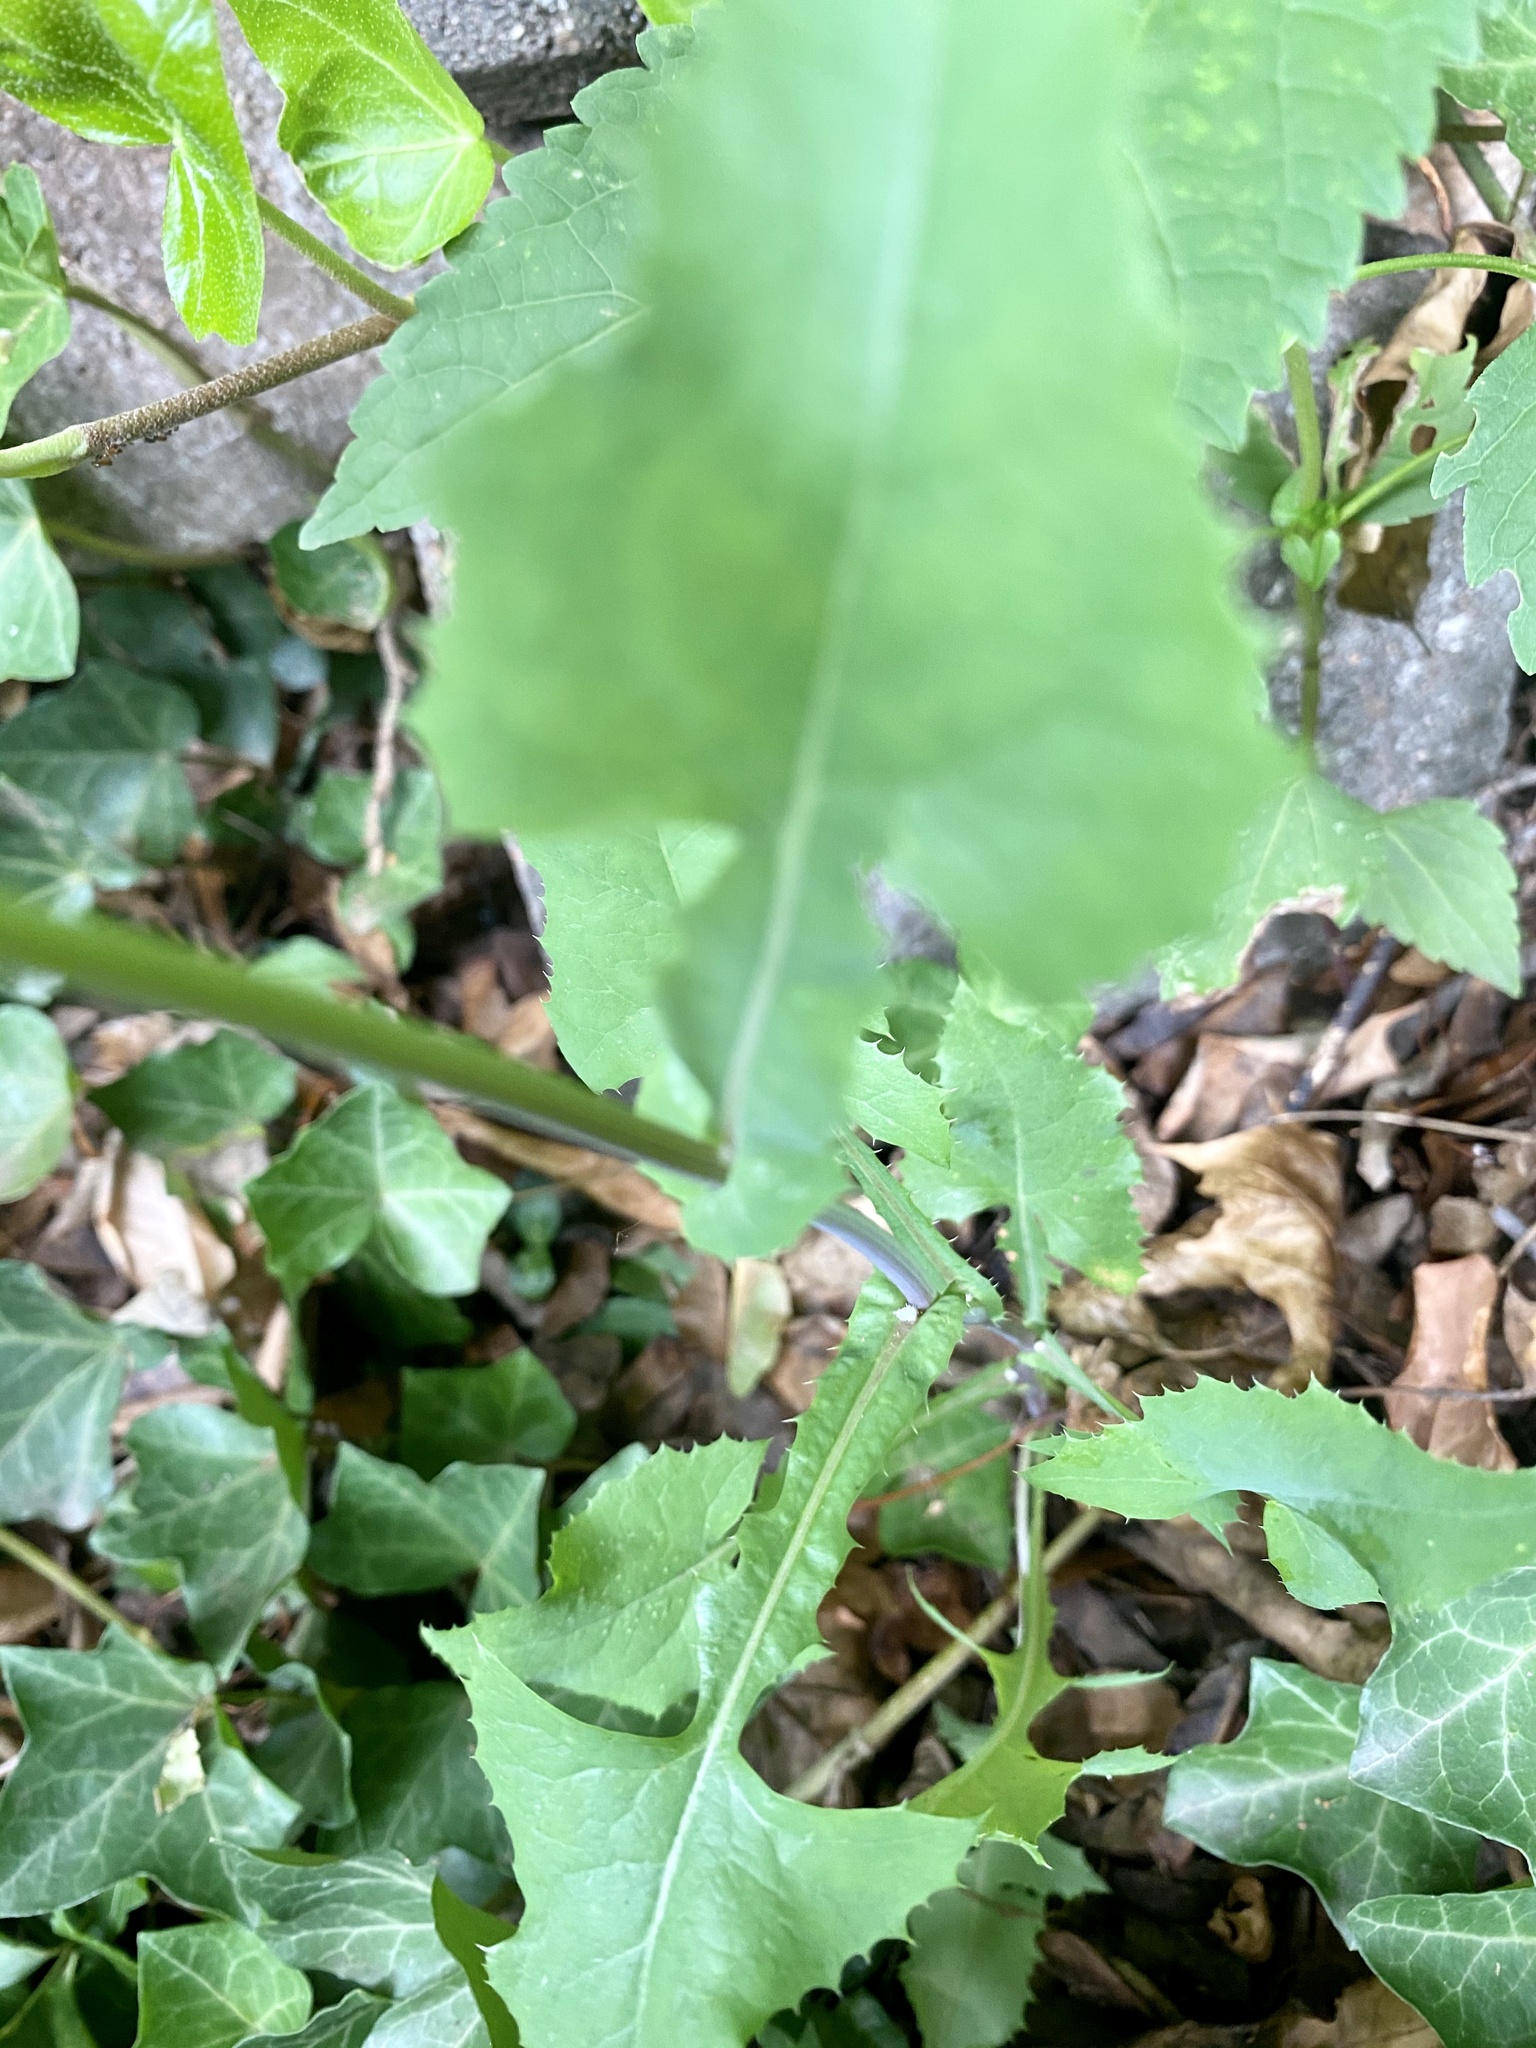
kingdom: Plantae
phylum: Tracheophyta
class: Magnoliopsida
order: Asterales
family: Asteraceae
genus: Sonchus
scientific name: Sonchus oleraceus
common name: Common sowthistle
